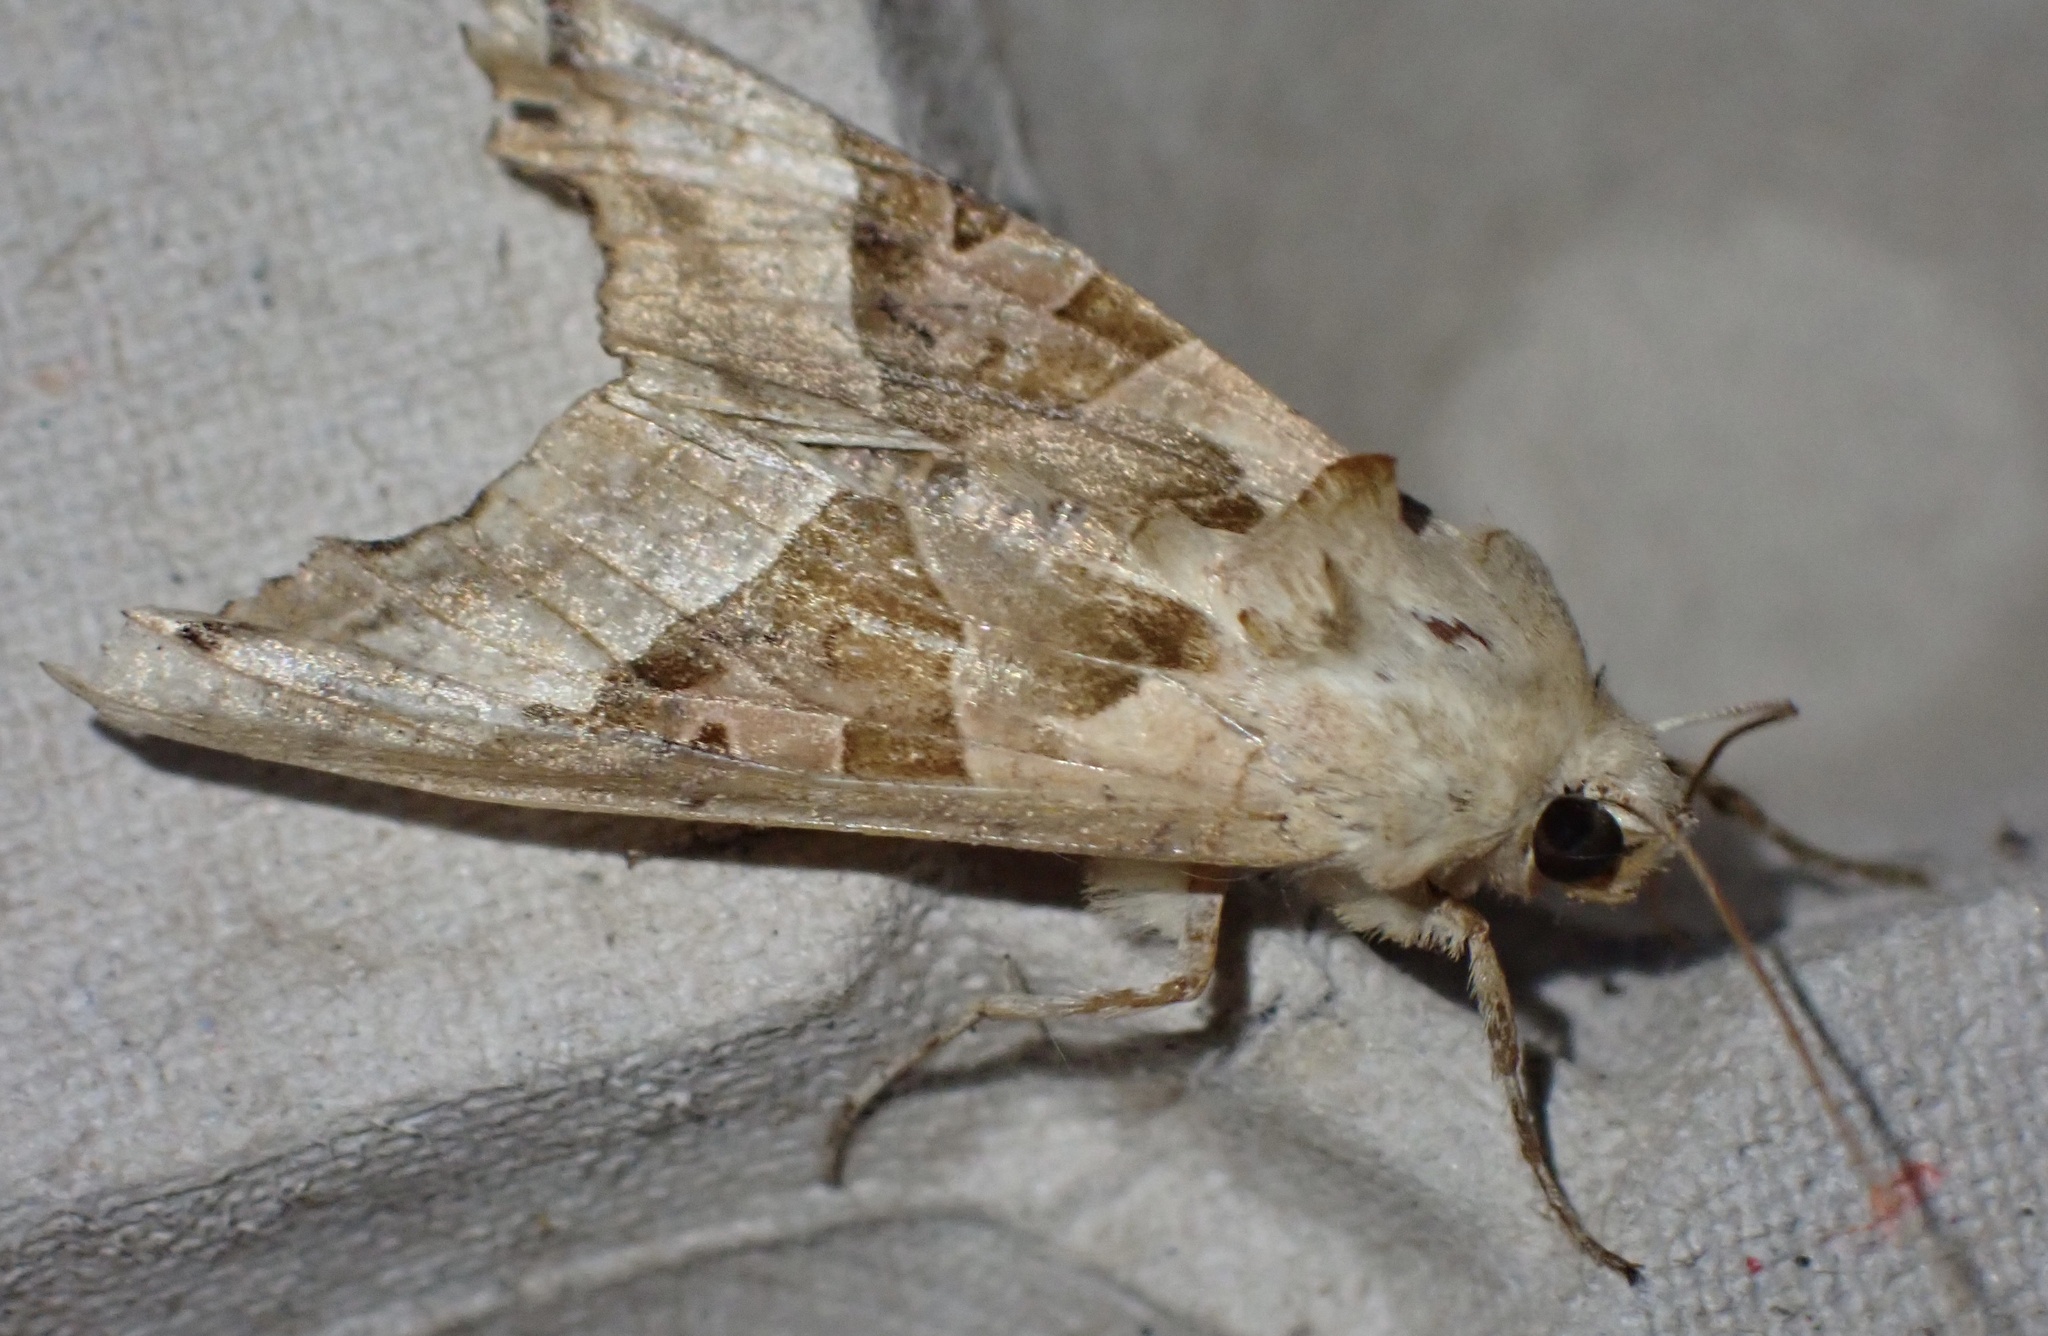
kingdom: Animalia
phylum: Arthropoda
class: Insecta
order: Lepidoptera
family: Noctuidae
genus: Phlogophora
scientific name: Phlogophora meticulosa
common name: Angle shades
